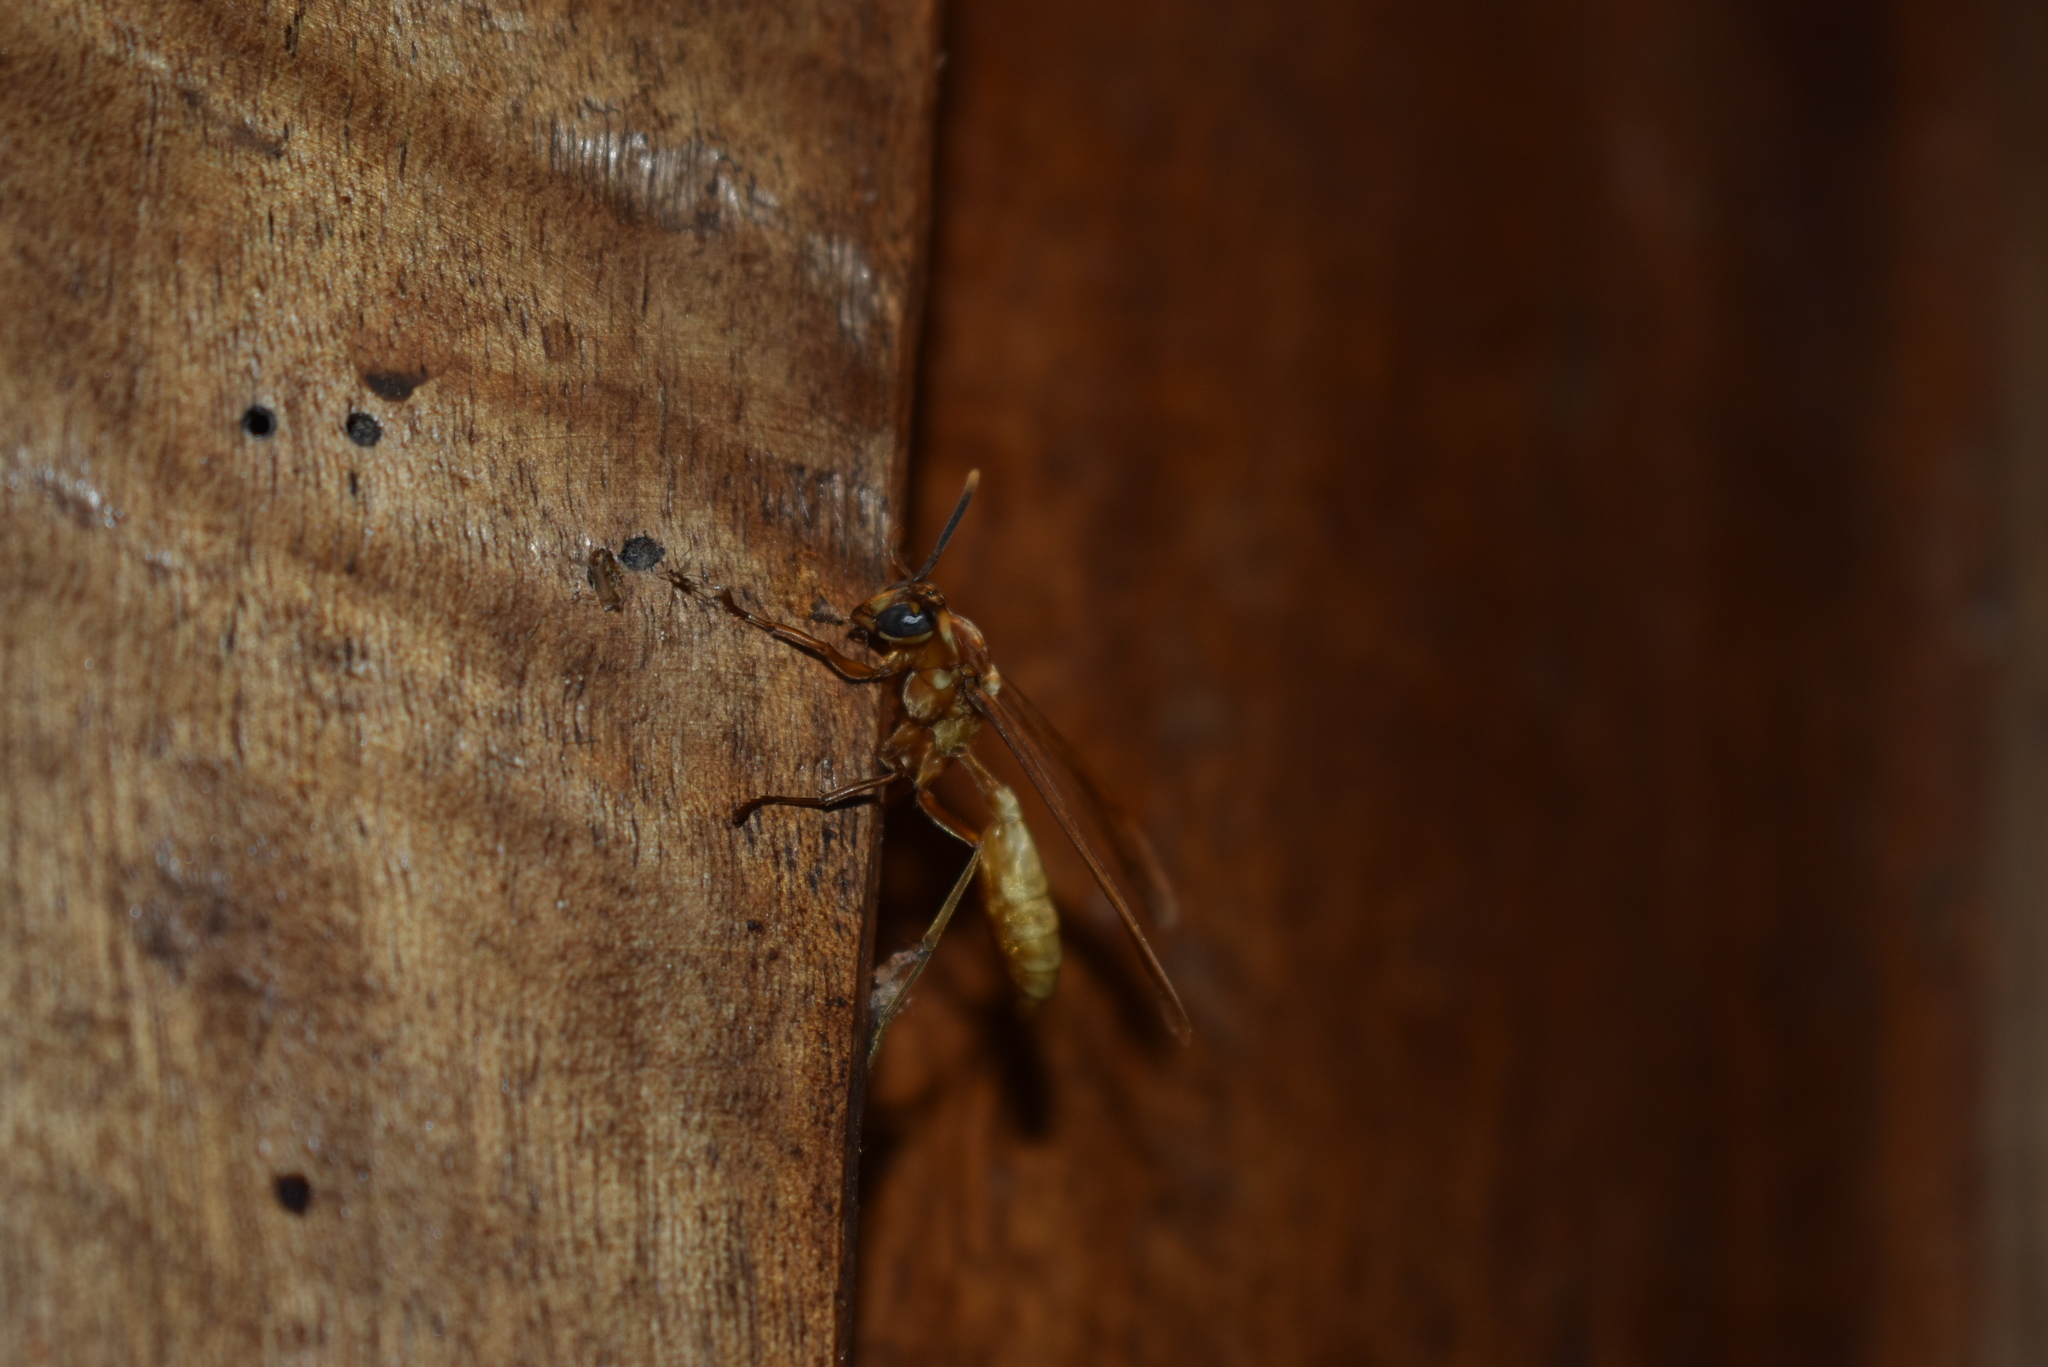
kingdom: Animalia
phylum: Arthropoda
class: Insecta
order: Hymenoptera
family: Vespidae
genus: Apoica
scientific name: Apoica gelida
